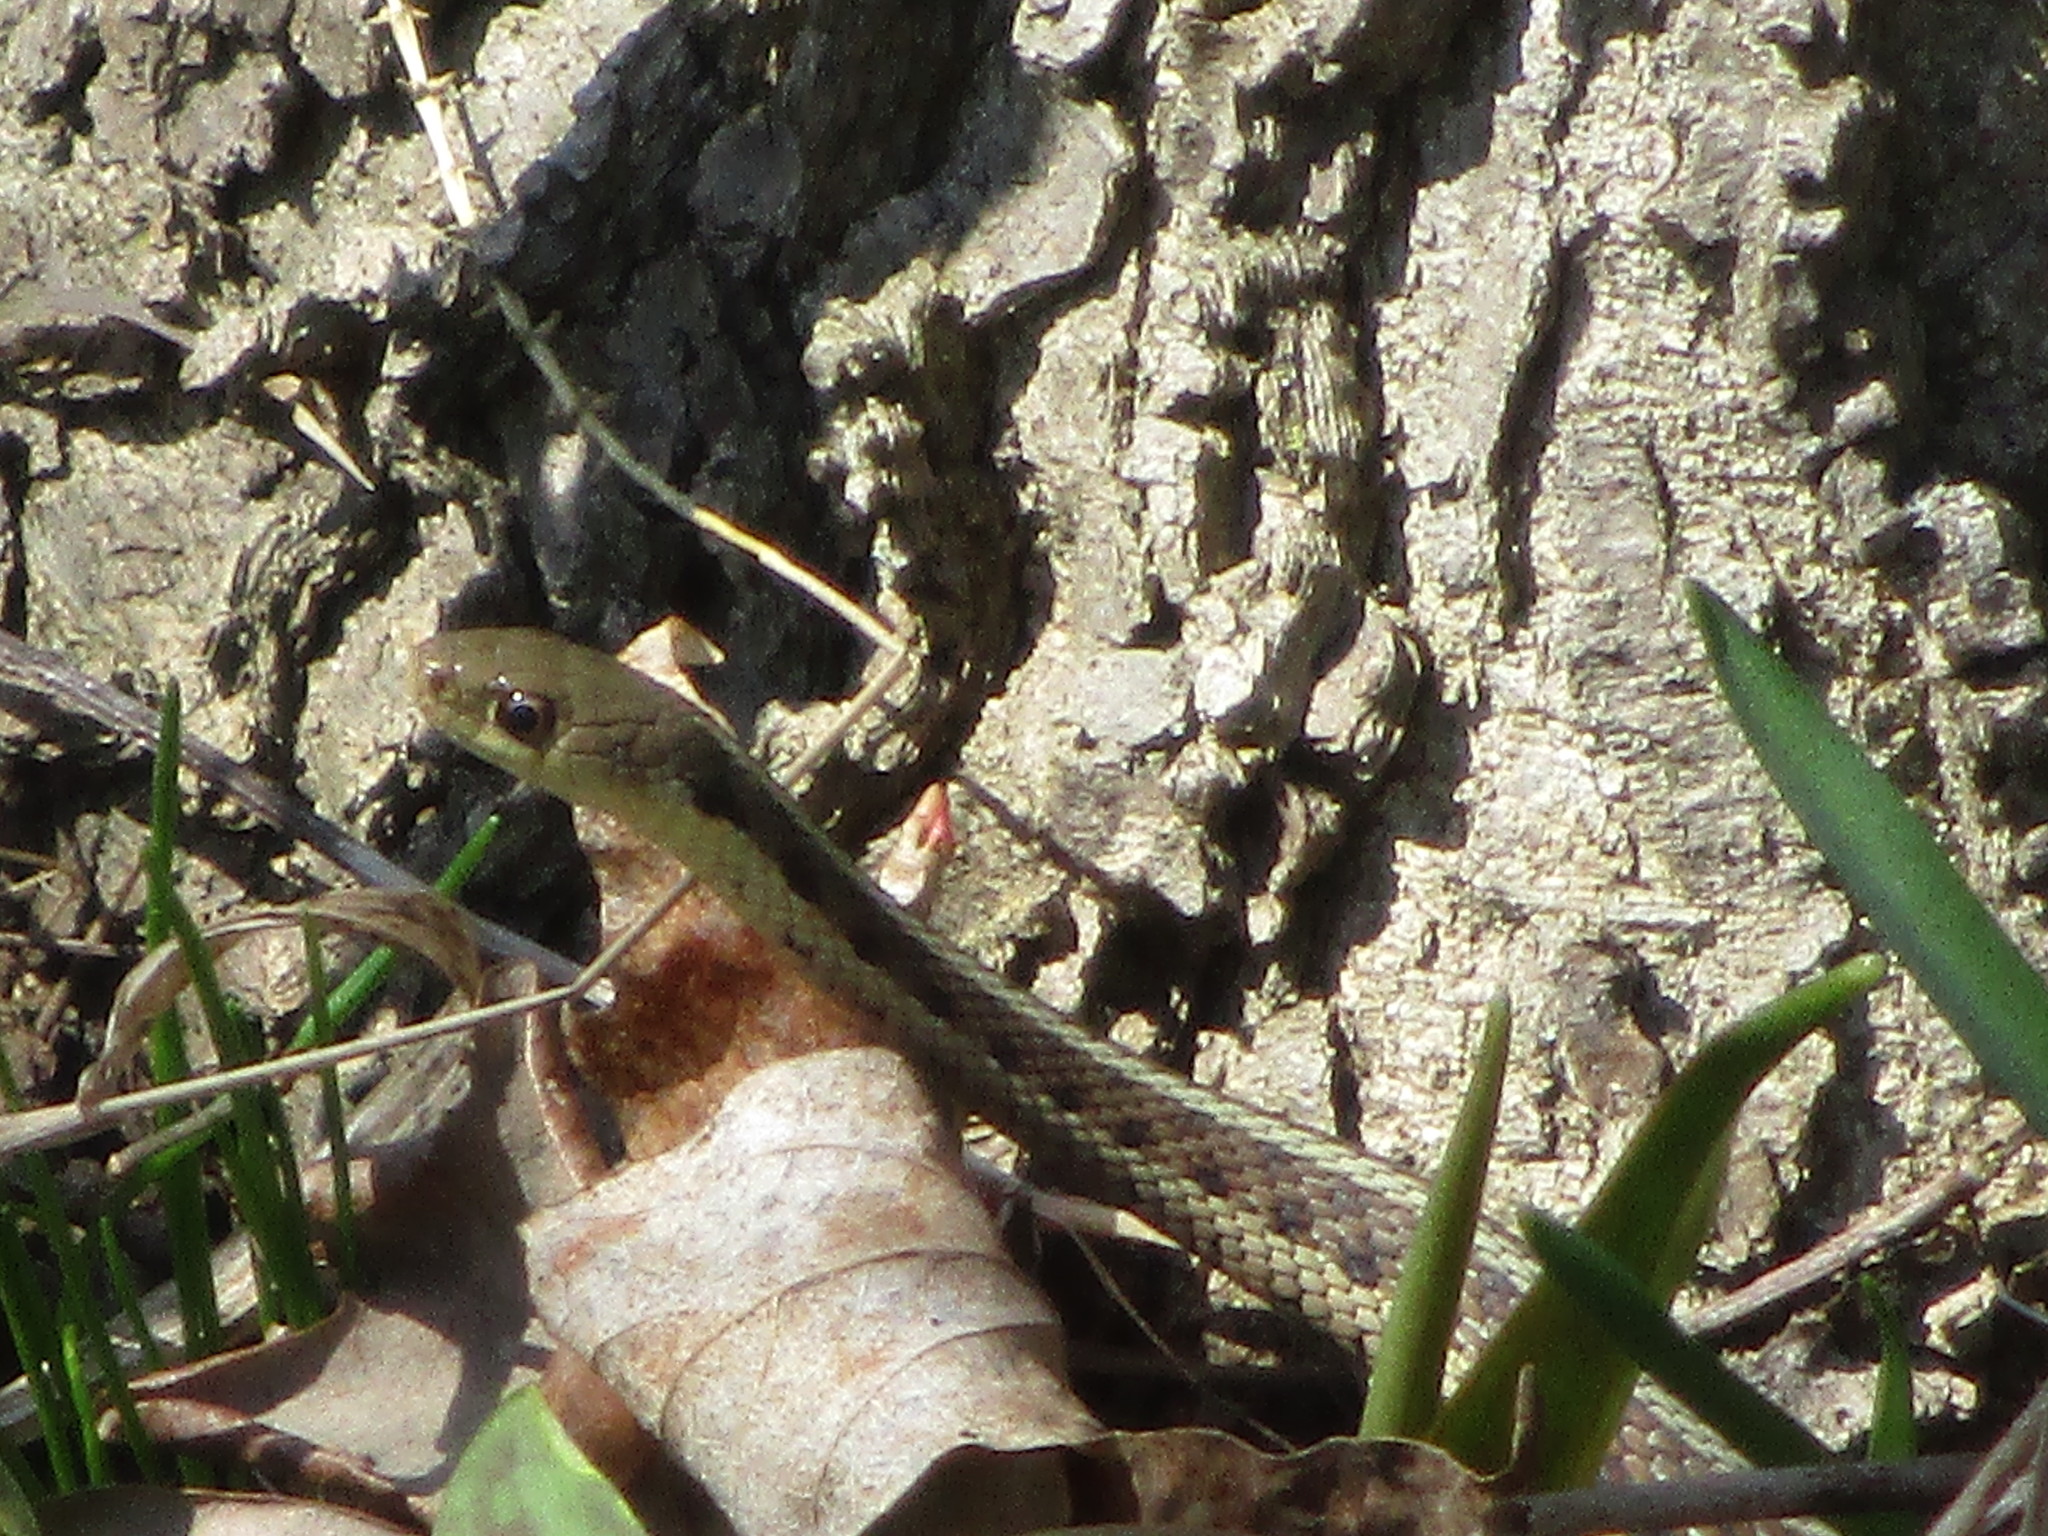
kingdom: Animalia
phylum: Chordata
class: Squamata
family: Colubridae
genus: Thamnophis
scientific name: Thamnophis sirtalis
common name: Common garter snake
